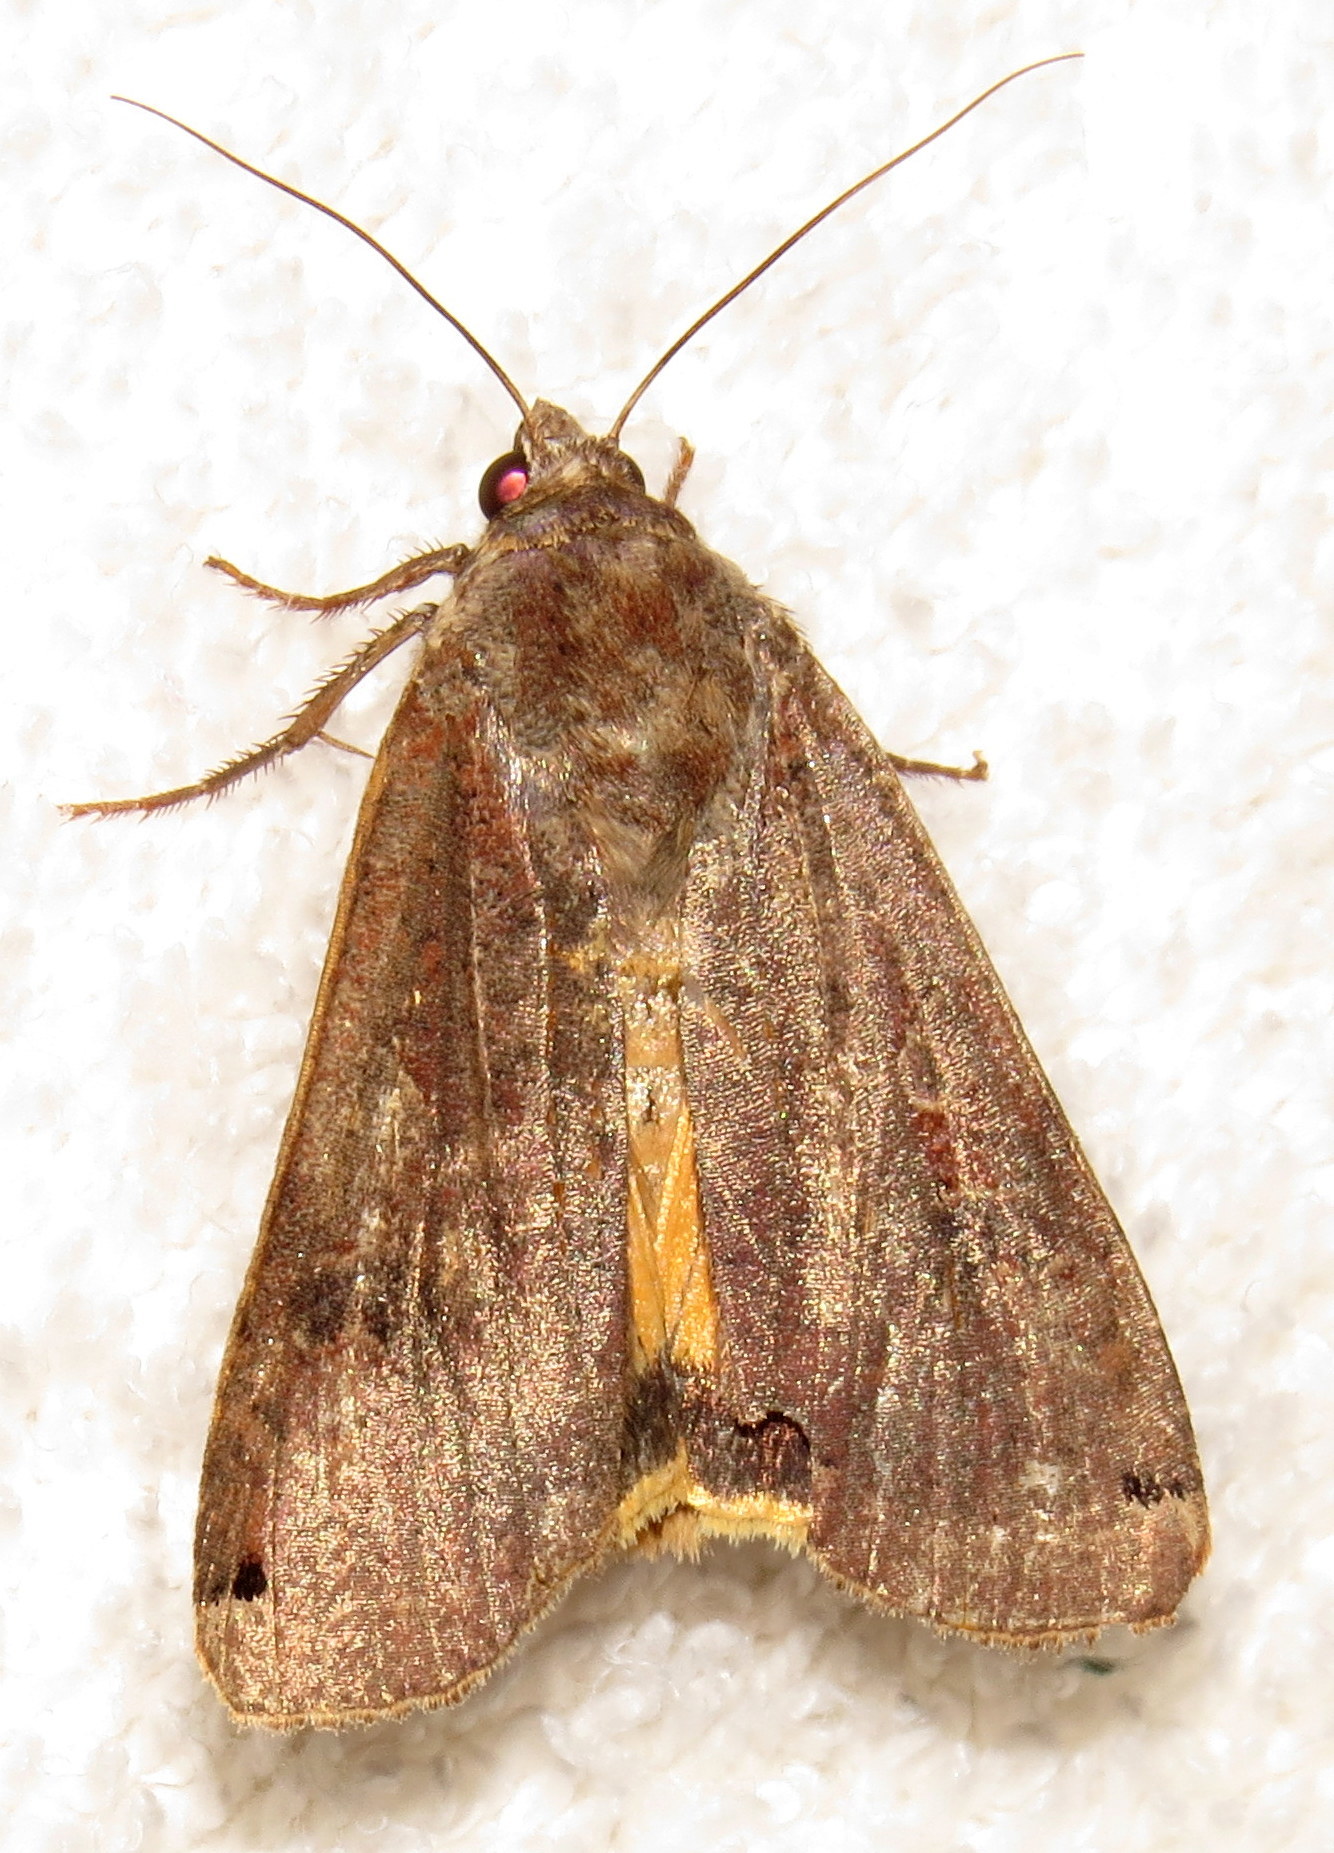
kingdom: Animalia
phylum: Arthropoda
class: Insecta
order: Lepidoptera
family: Noctuidae
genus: Noctua
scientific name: Noctua pronuba
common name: Large yellow underwing
